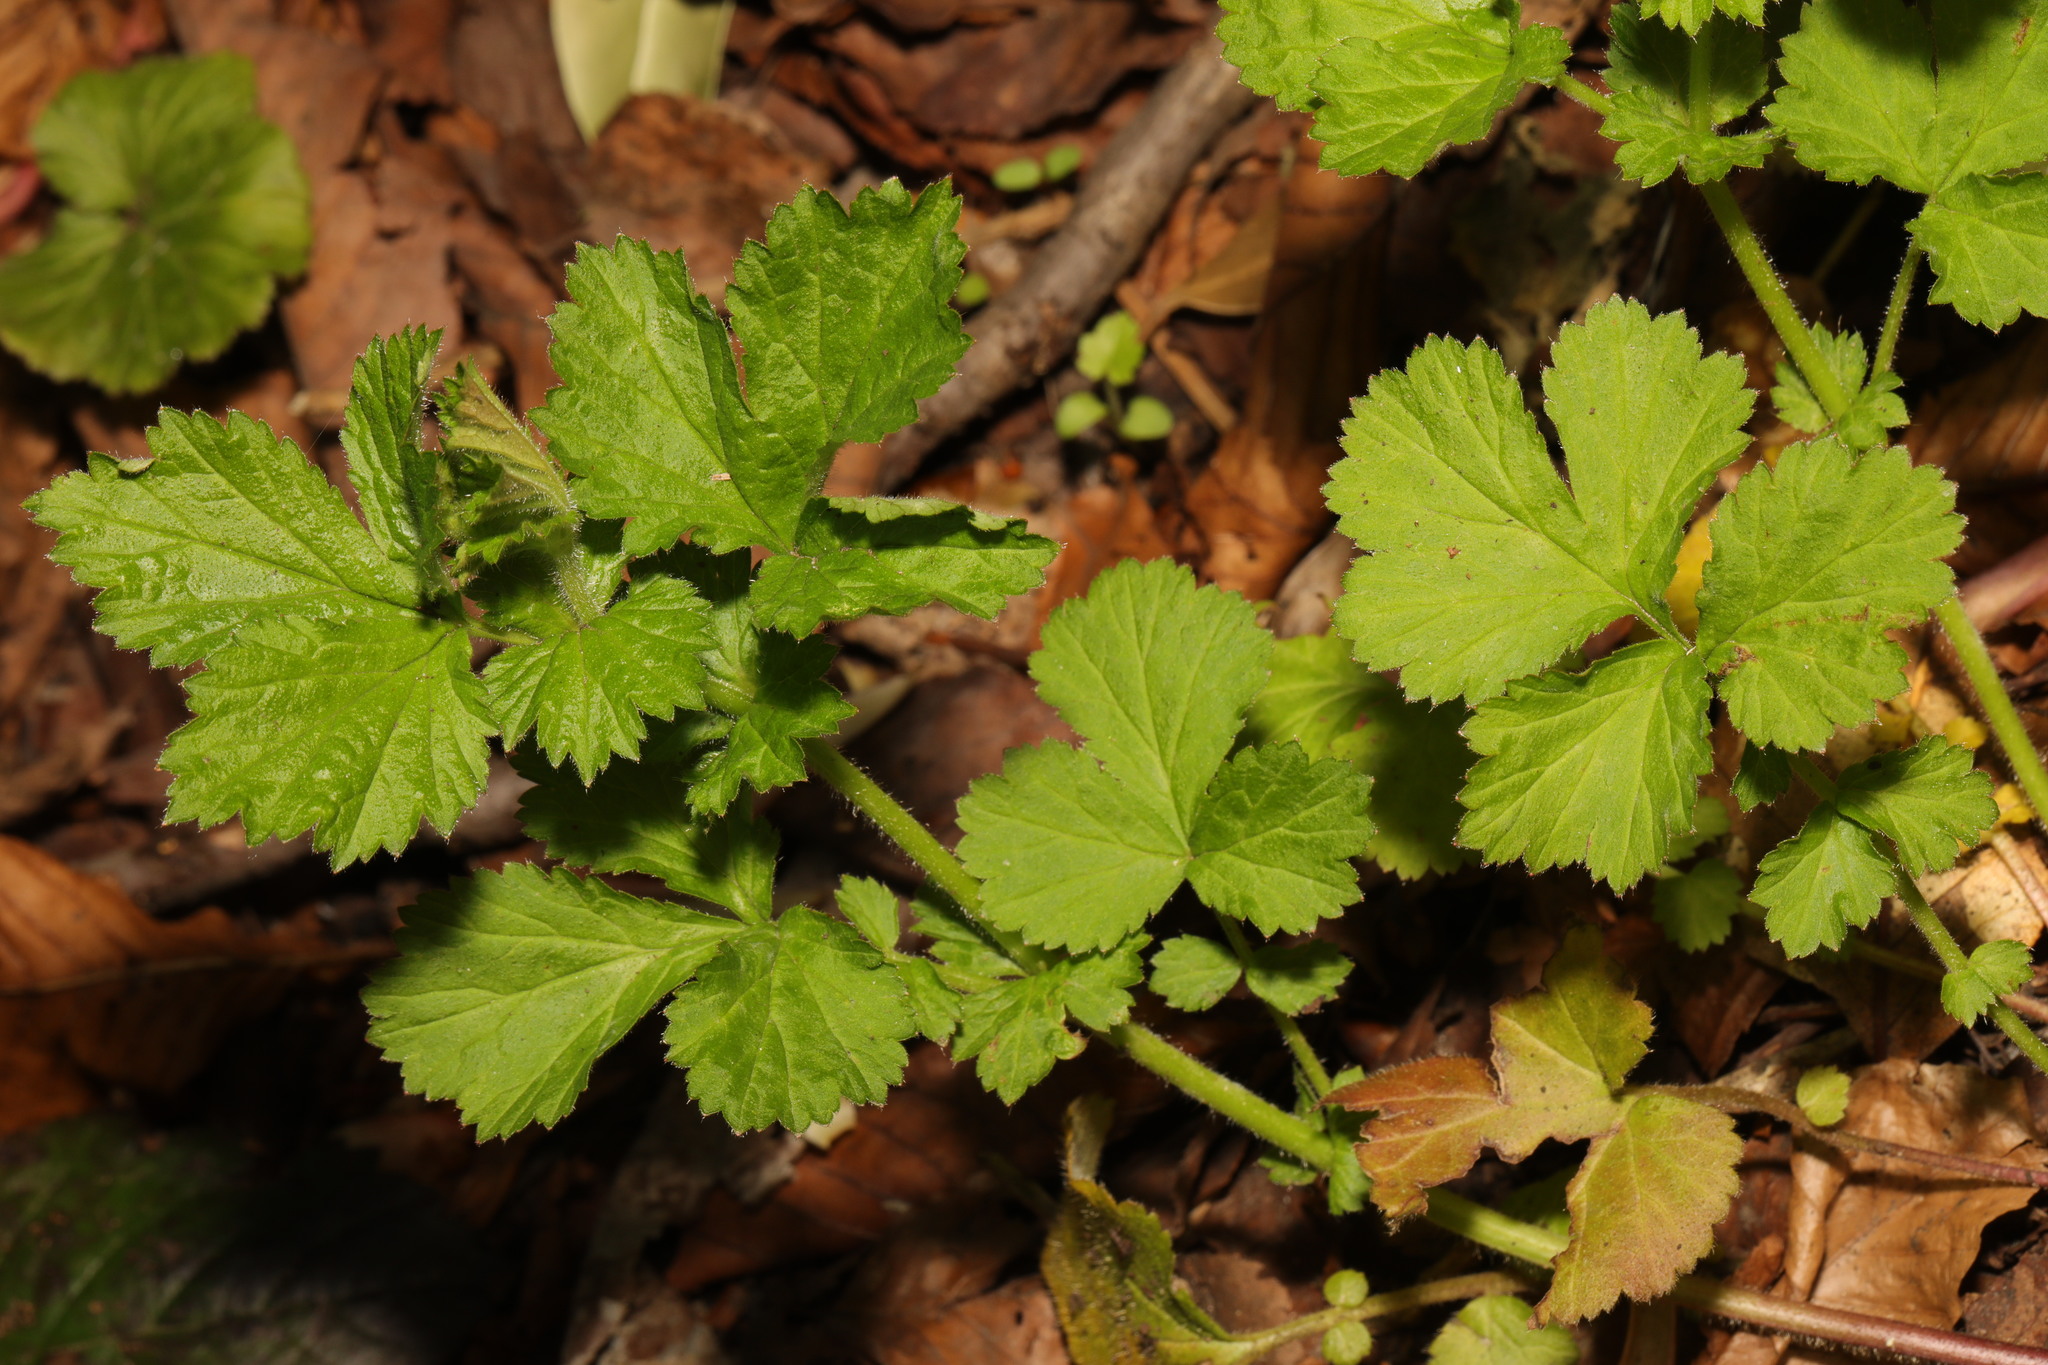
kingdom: Plantae
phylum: Tracheophyta
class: Magnoliopsida
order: Rosales
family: Rosaceae
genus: Geum
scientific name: Geum urbanum
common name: Wood avens
